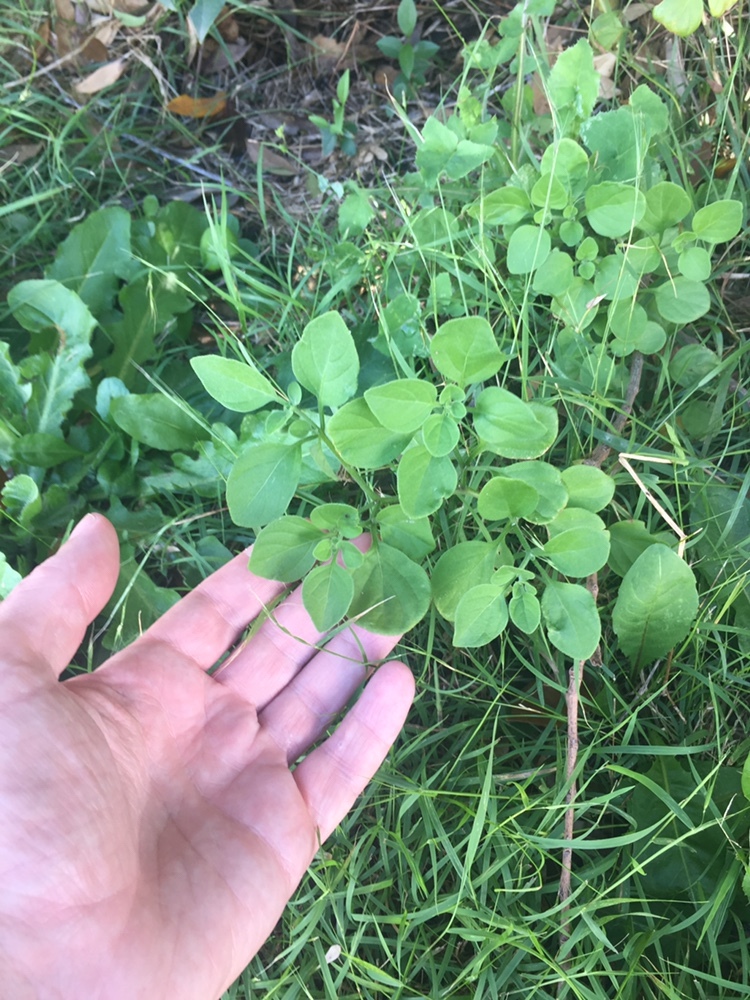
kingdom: Plantae
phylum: Tracheophyta
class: Magnoliopsida
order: Solanales
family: Solanaceae
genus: Salpichroa
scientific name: Salpichroa origanifolia
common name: Lily-of-the-valley-vine
